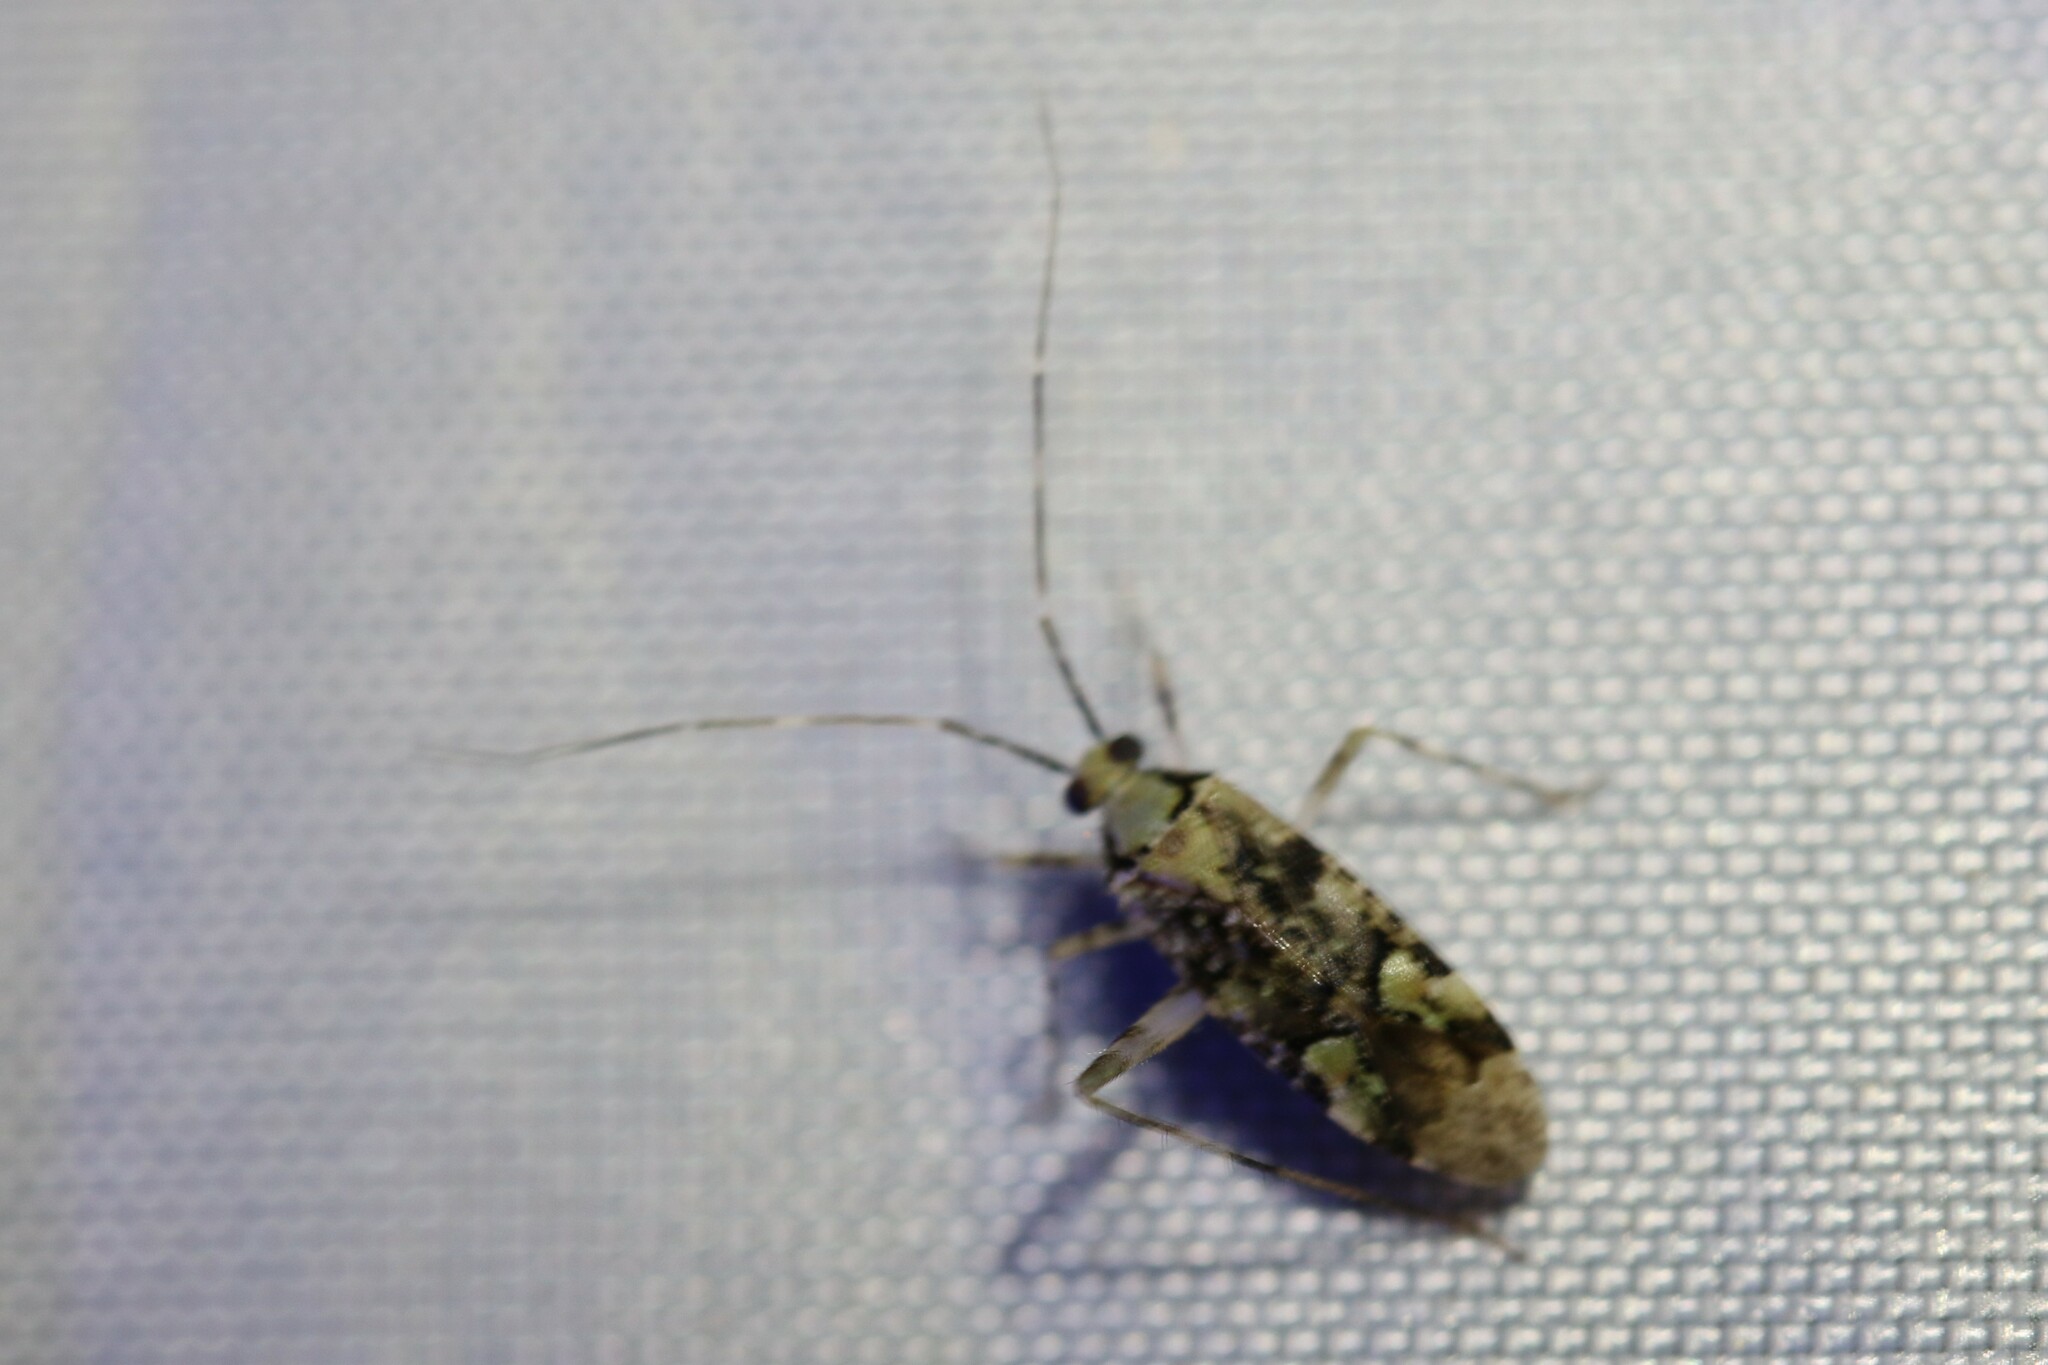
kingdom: Animalia
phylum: Arthropoda
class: Insecta
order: Hemiptera
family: Miridae
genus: Phytocoris
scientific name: Phytocoris tiliae
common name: Plant bug
